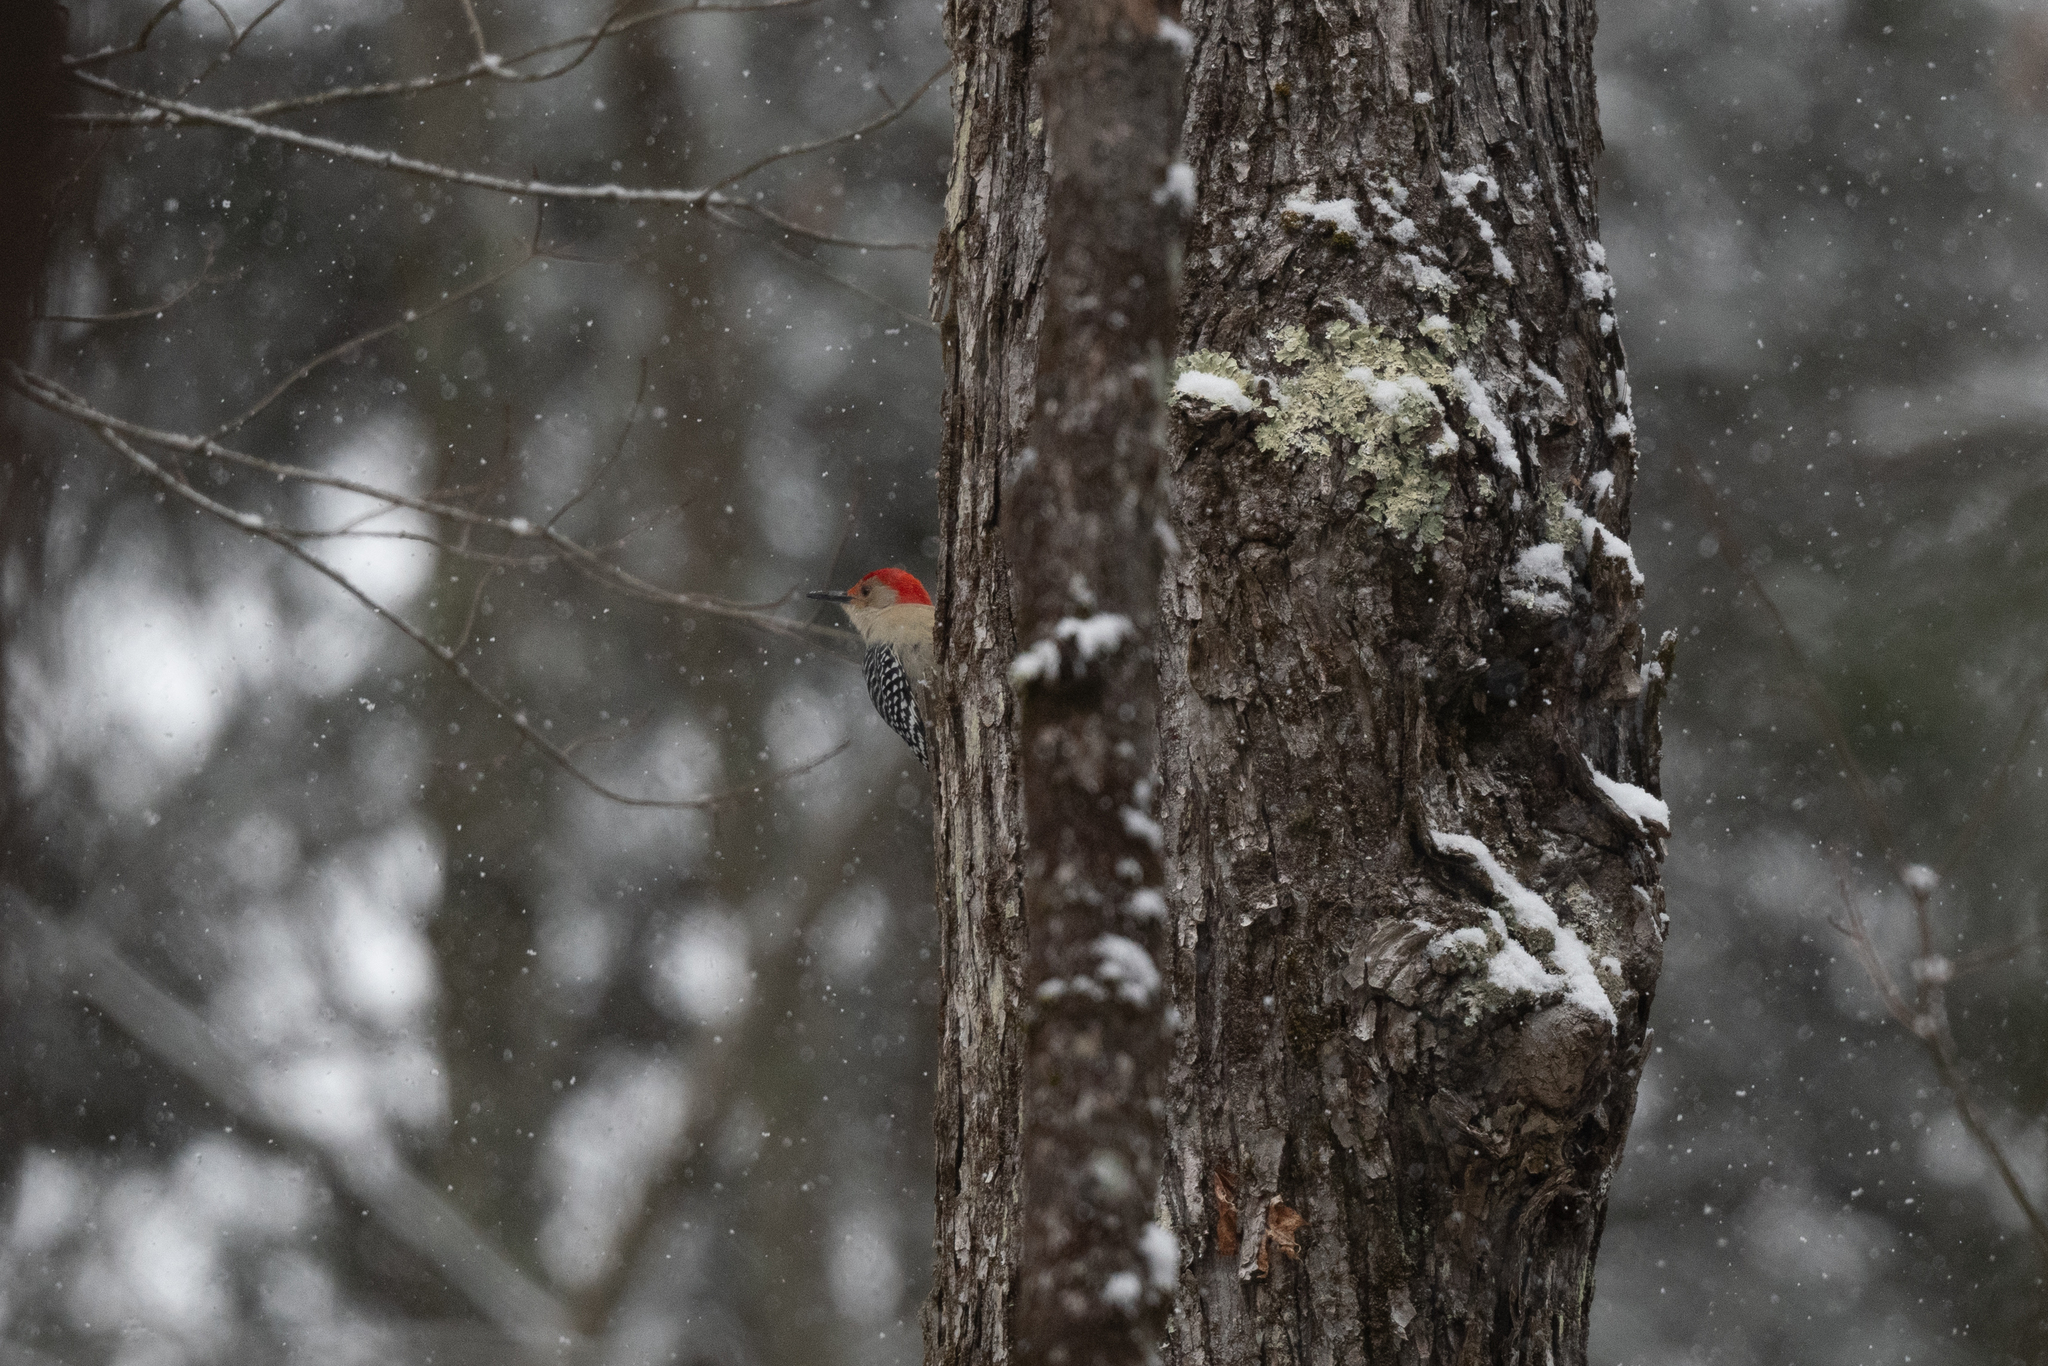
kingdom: Animalia
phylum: Chordata
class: Aves
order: Piciformes
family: Picidae
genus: Melanerpes
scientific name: Melanerpes carolinus
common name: Red-bellied woodpecker
